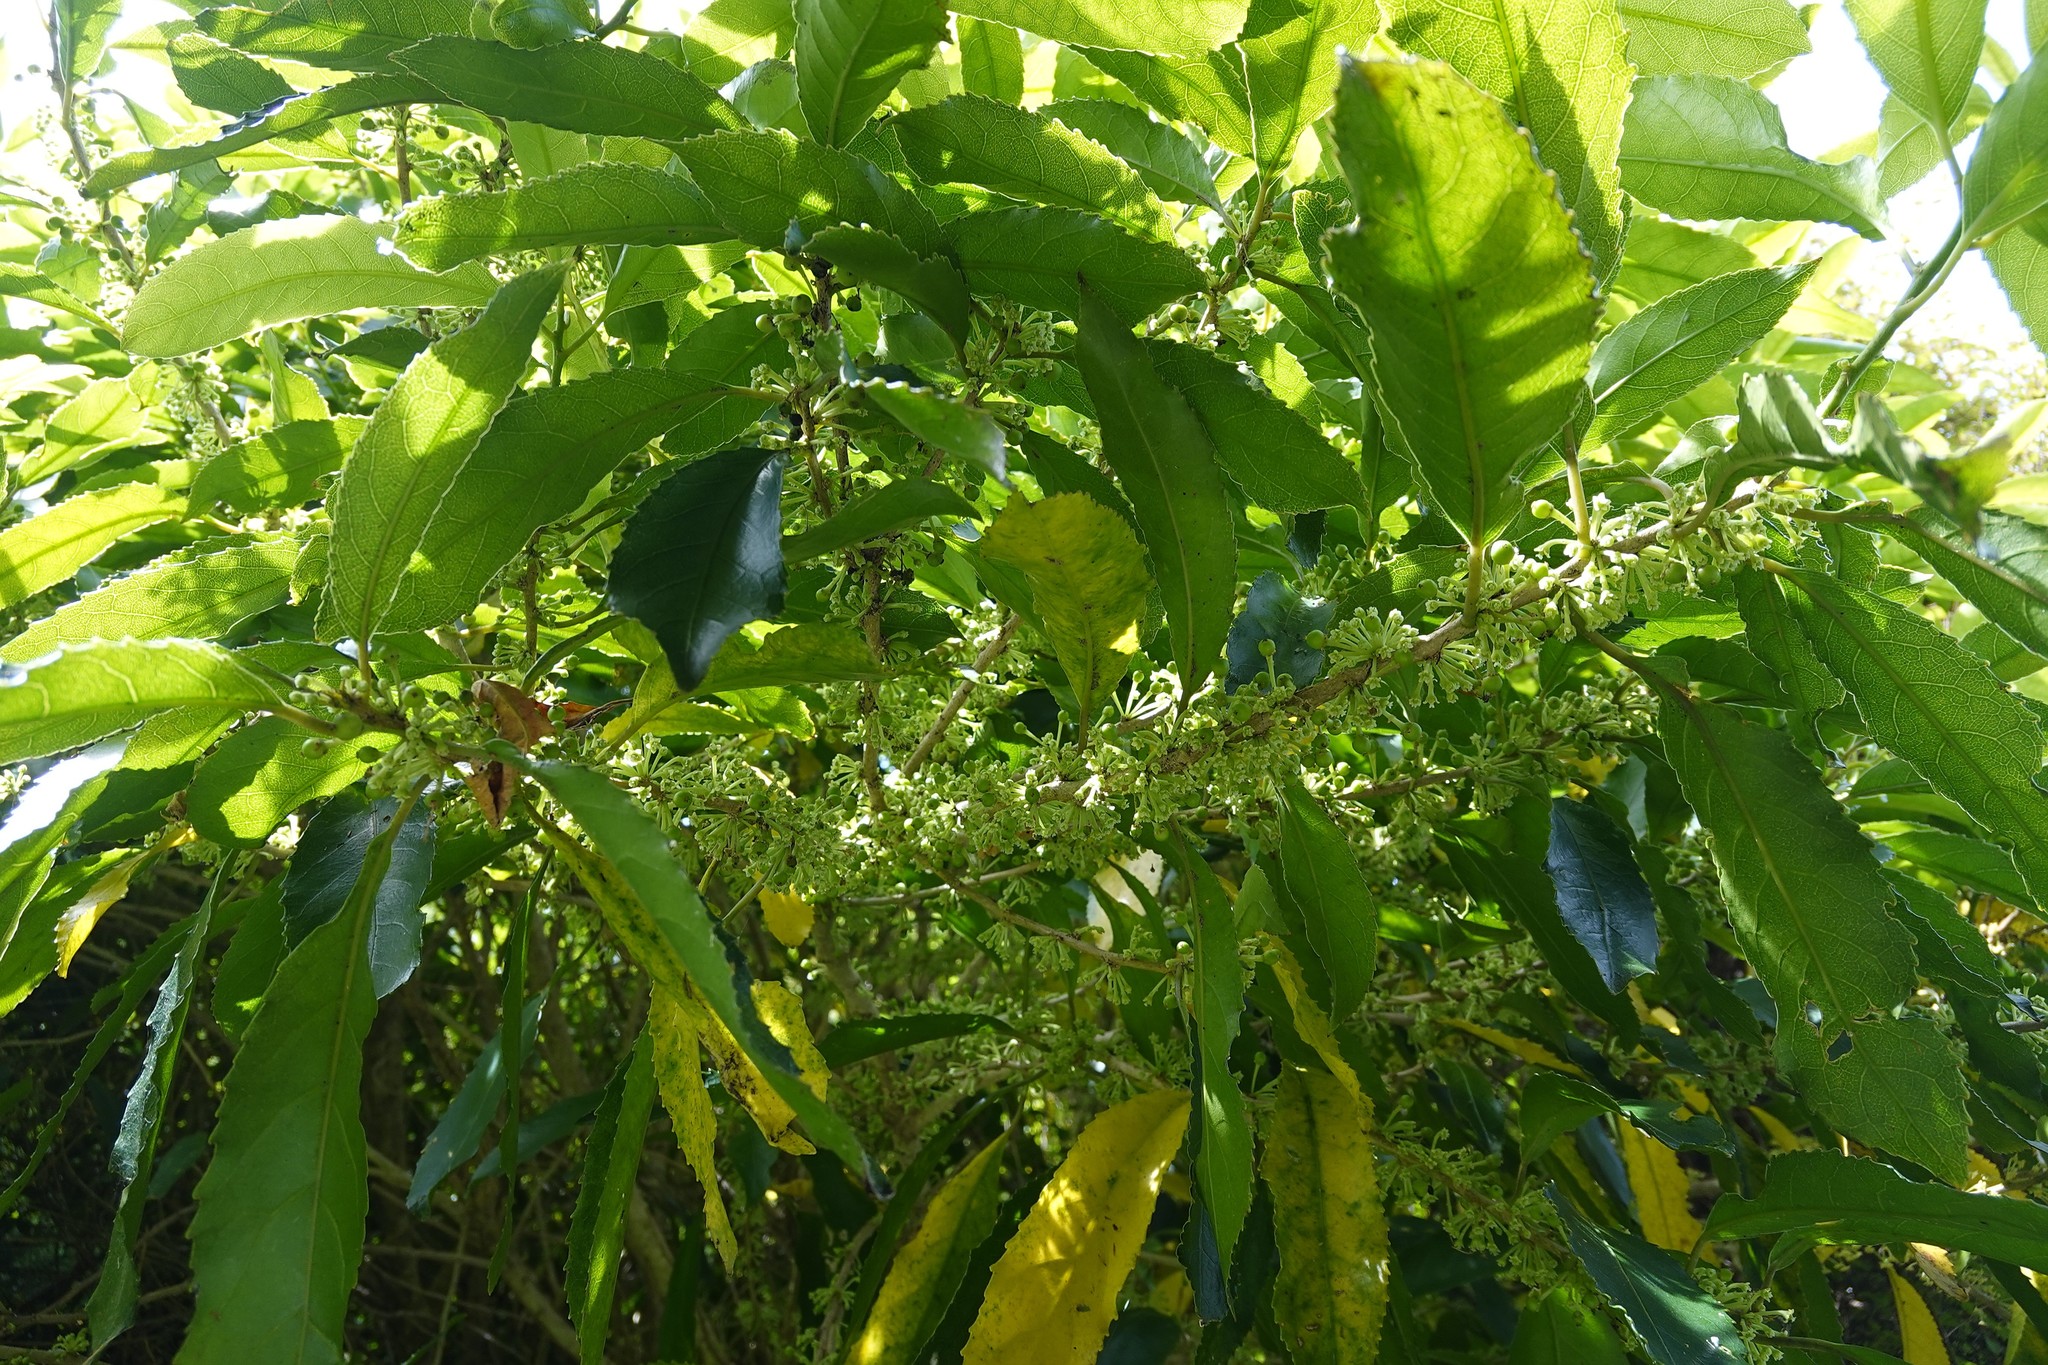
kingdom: Plantae
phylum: Tracheophyta
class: Magnoliopsida
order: Malpighiales
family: Violaceae
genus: Melicytus
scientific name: Melicytus ramiflorus
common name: Mahoe
